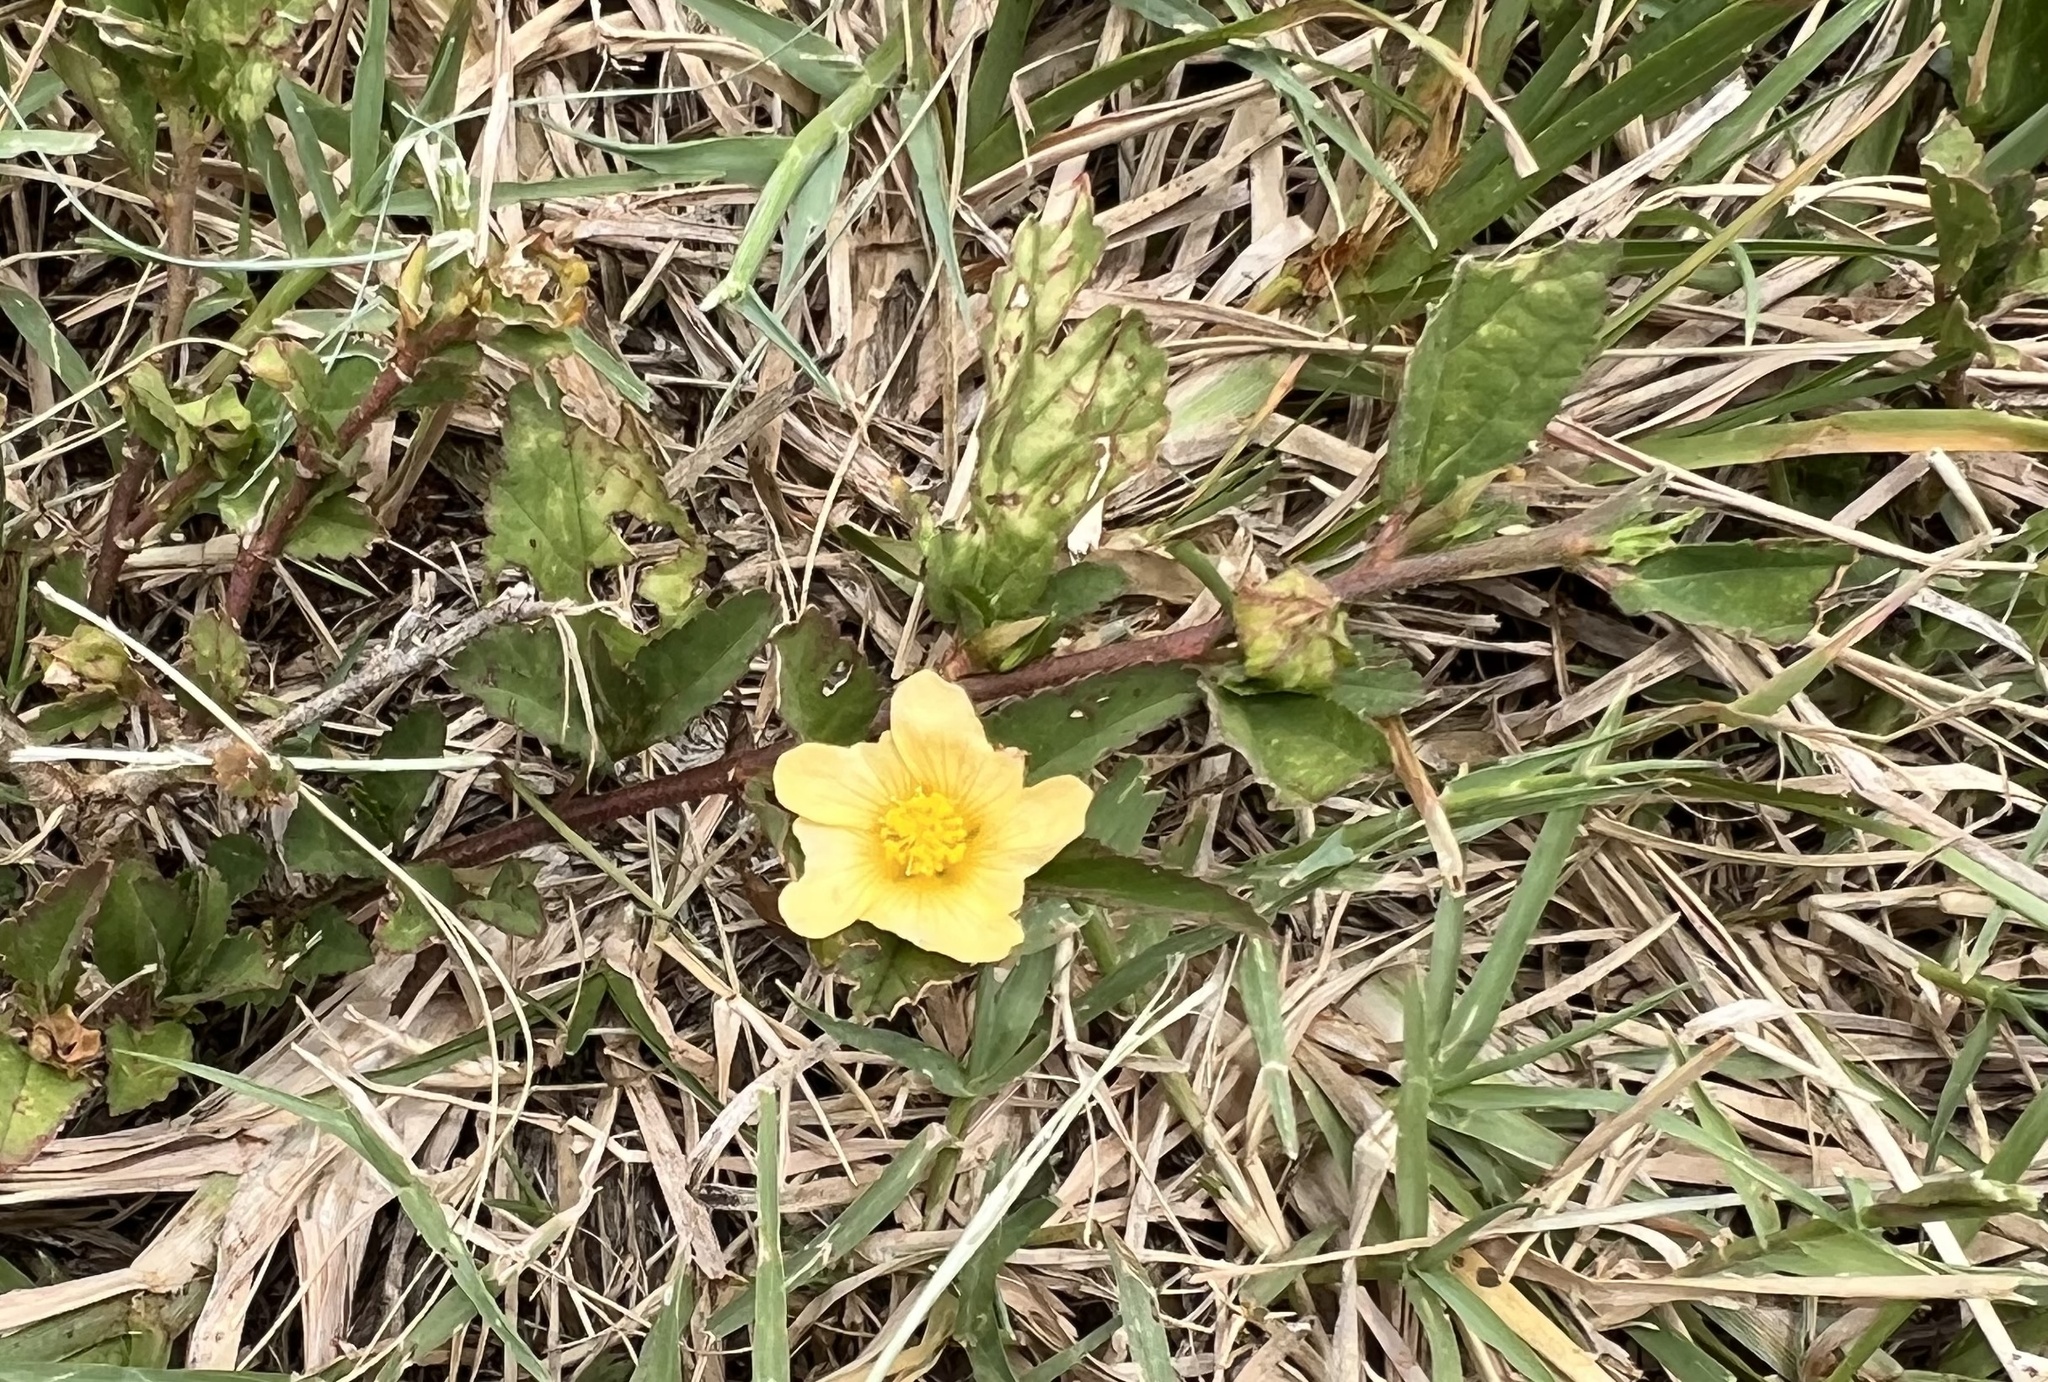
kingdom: Plantae
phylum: Tracheophyta
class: Magnoliopsida
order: Malvales
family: Malvaceae
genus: Sida
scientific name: Sida rhombifolia
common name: Queensland-hemp
